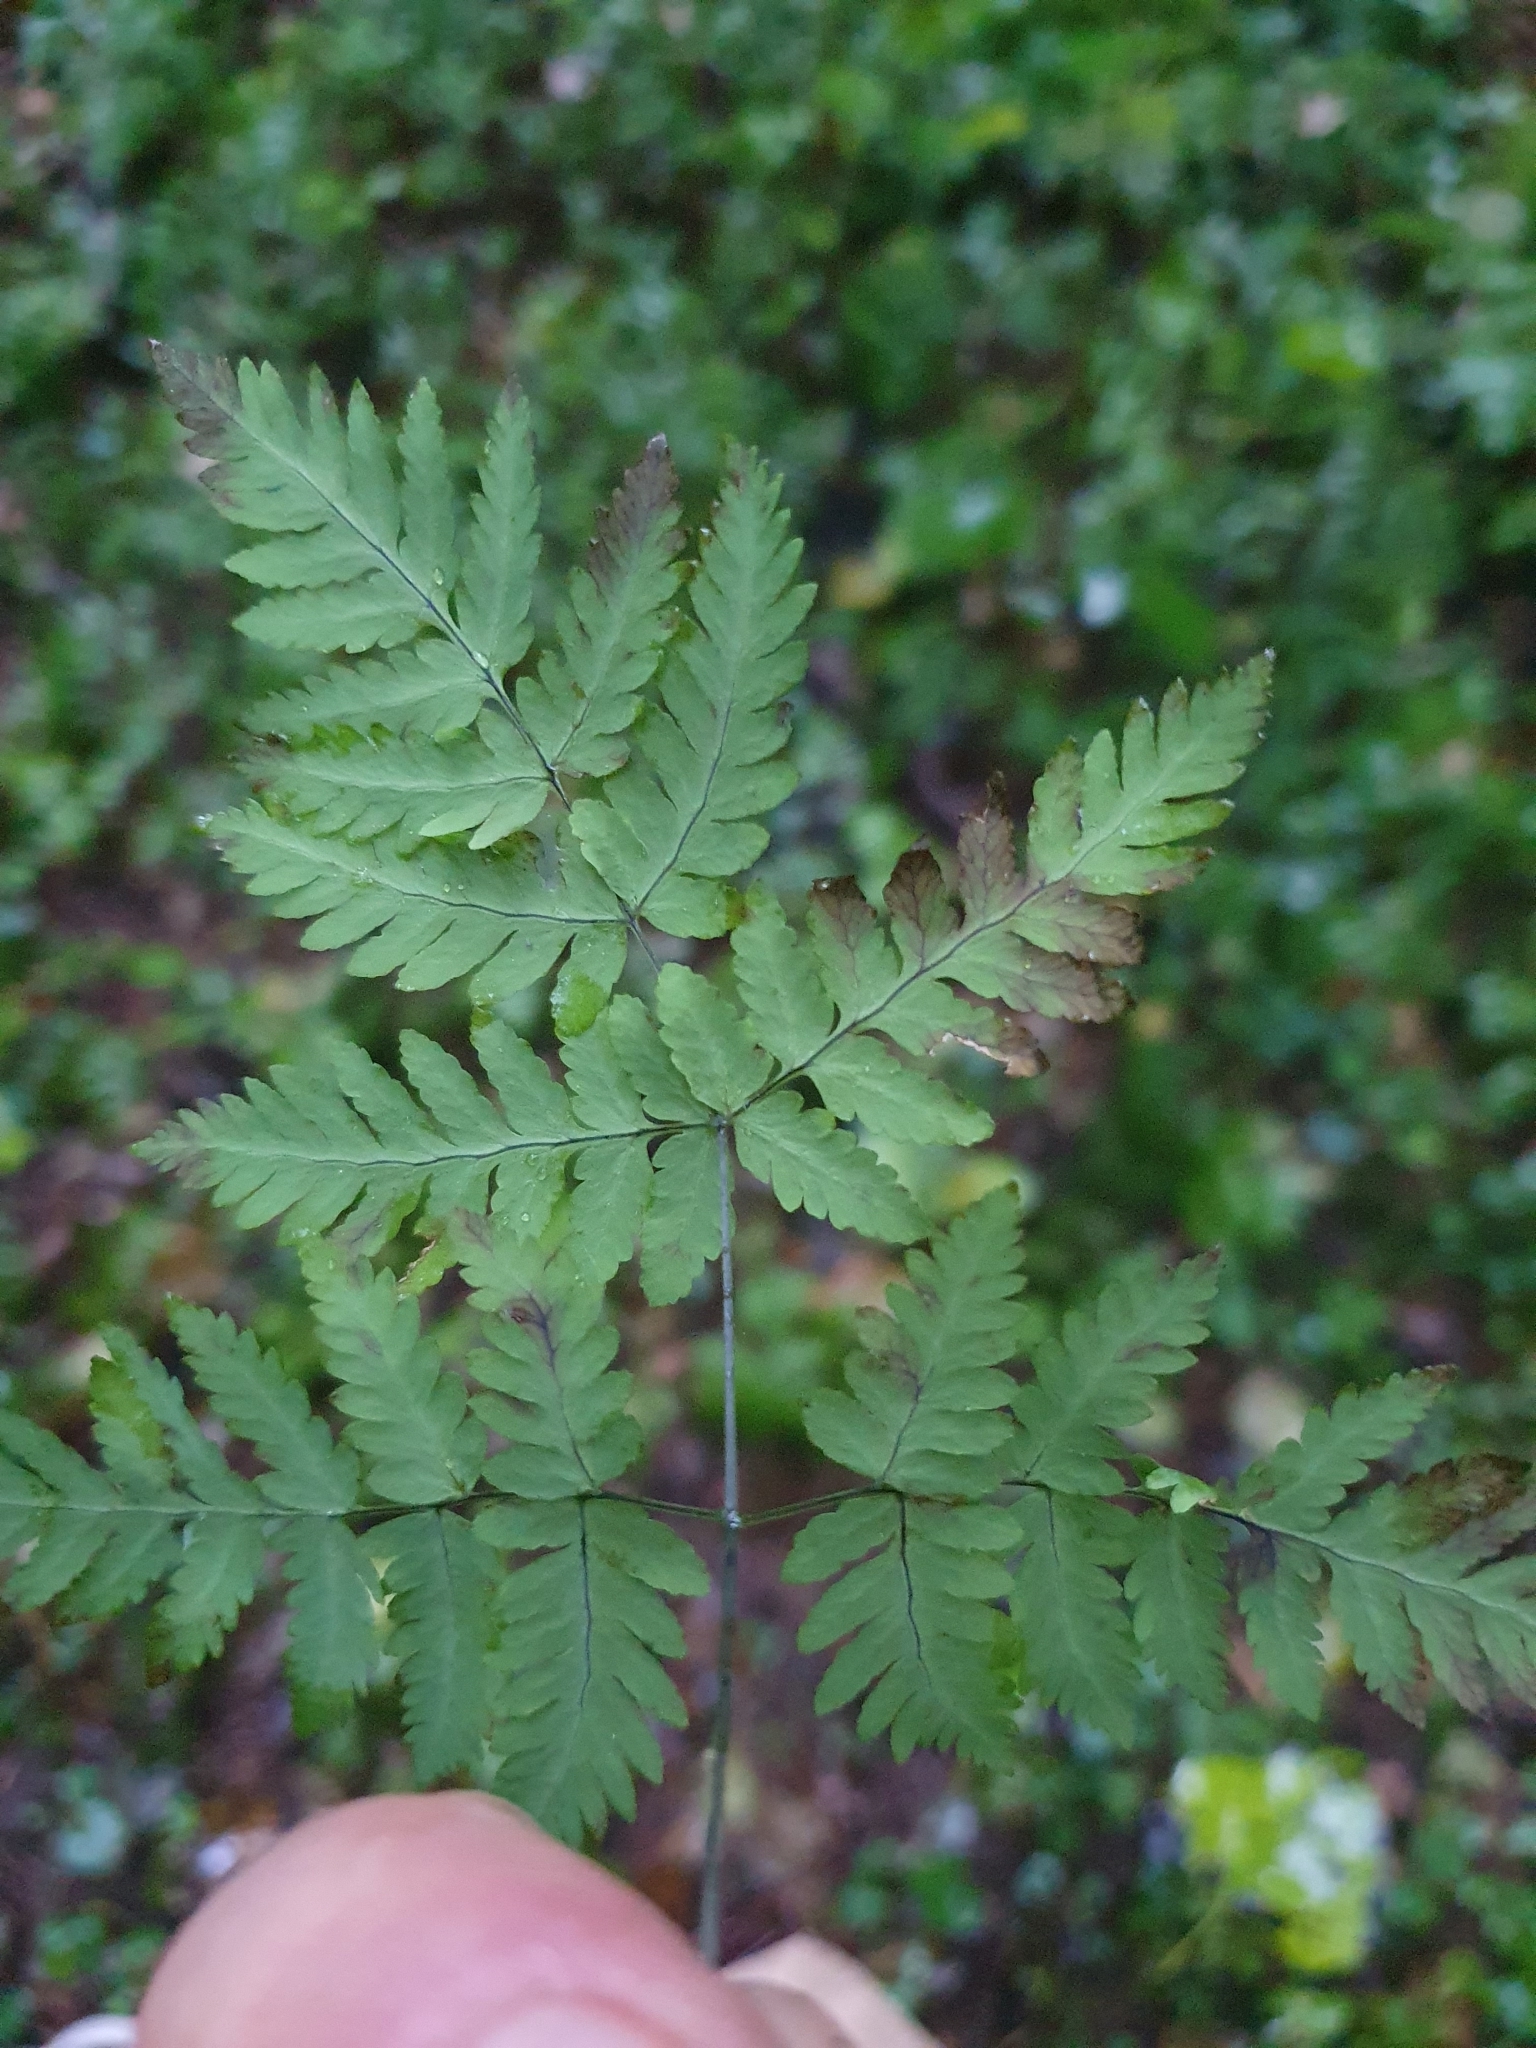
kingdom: Plantae
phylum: Tracheophyta
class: Polypodiopsida
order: Polypodiales
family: Cystopteridaceae
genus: Gymnocarpium
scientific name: Gymnocarpium dryopteris
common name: Oak fern
